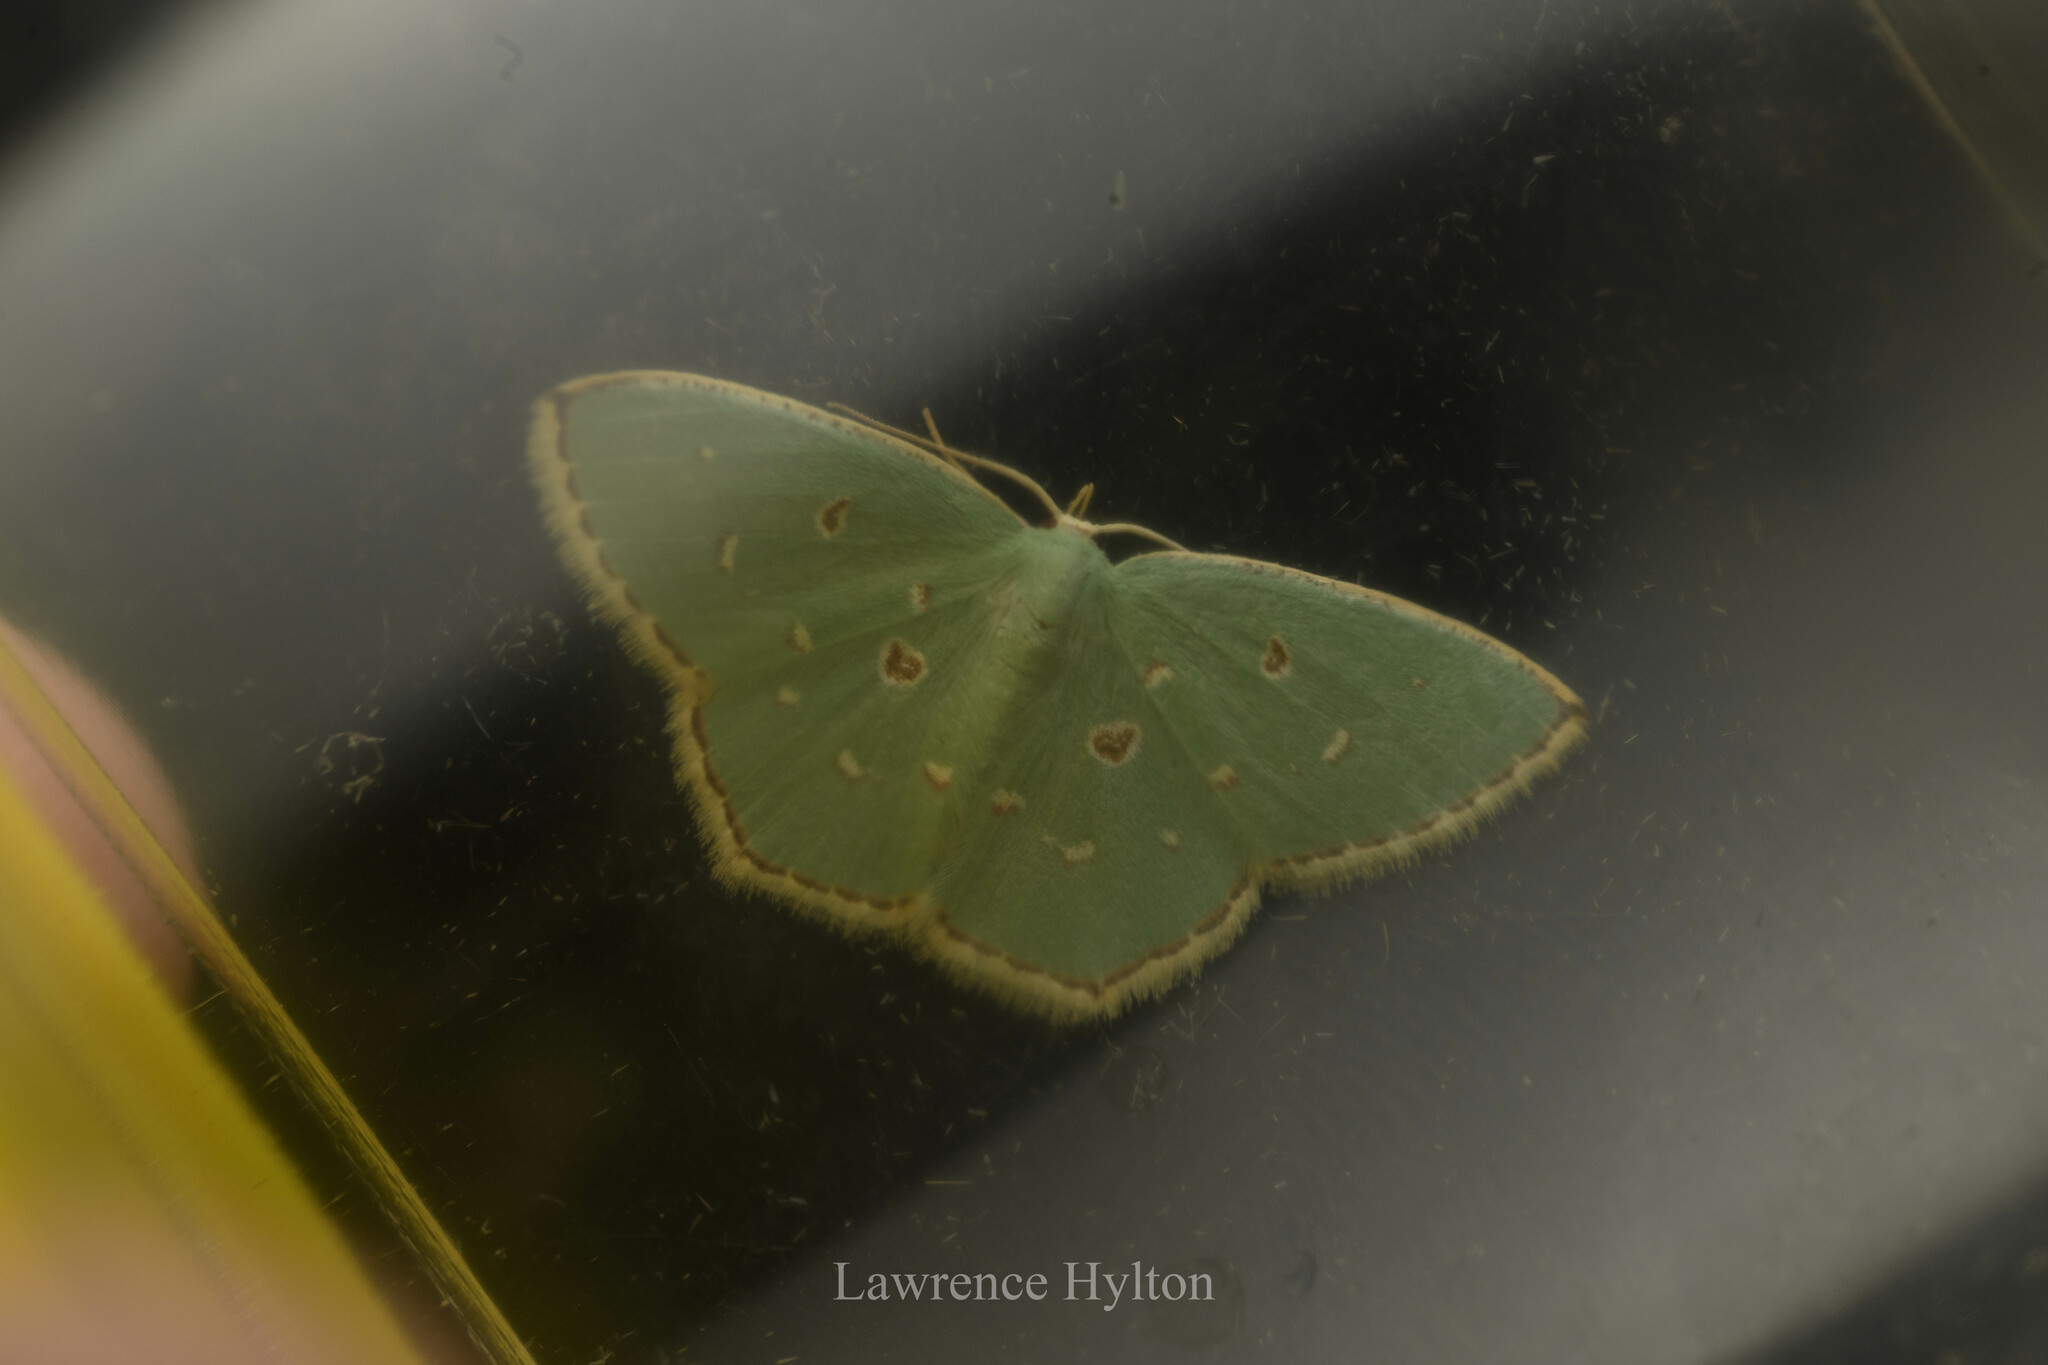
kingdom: Animalia
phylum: Arthropoda
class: Insecta
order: Lepidoptera
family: Geometridae
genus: Comostola
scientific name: Comostola meritaria
